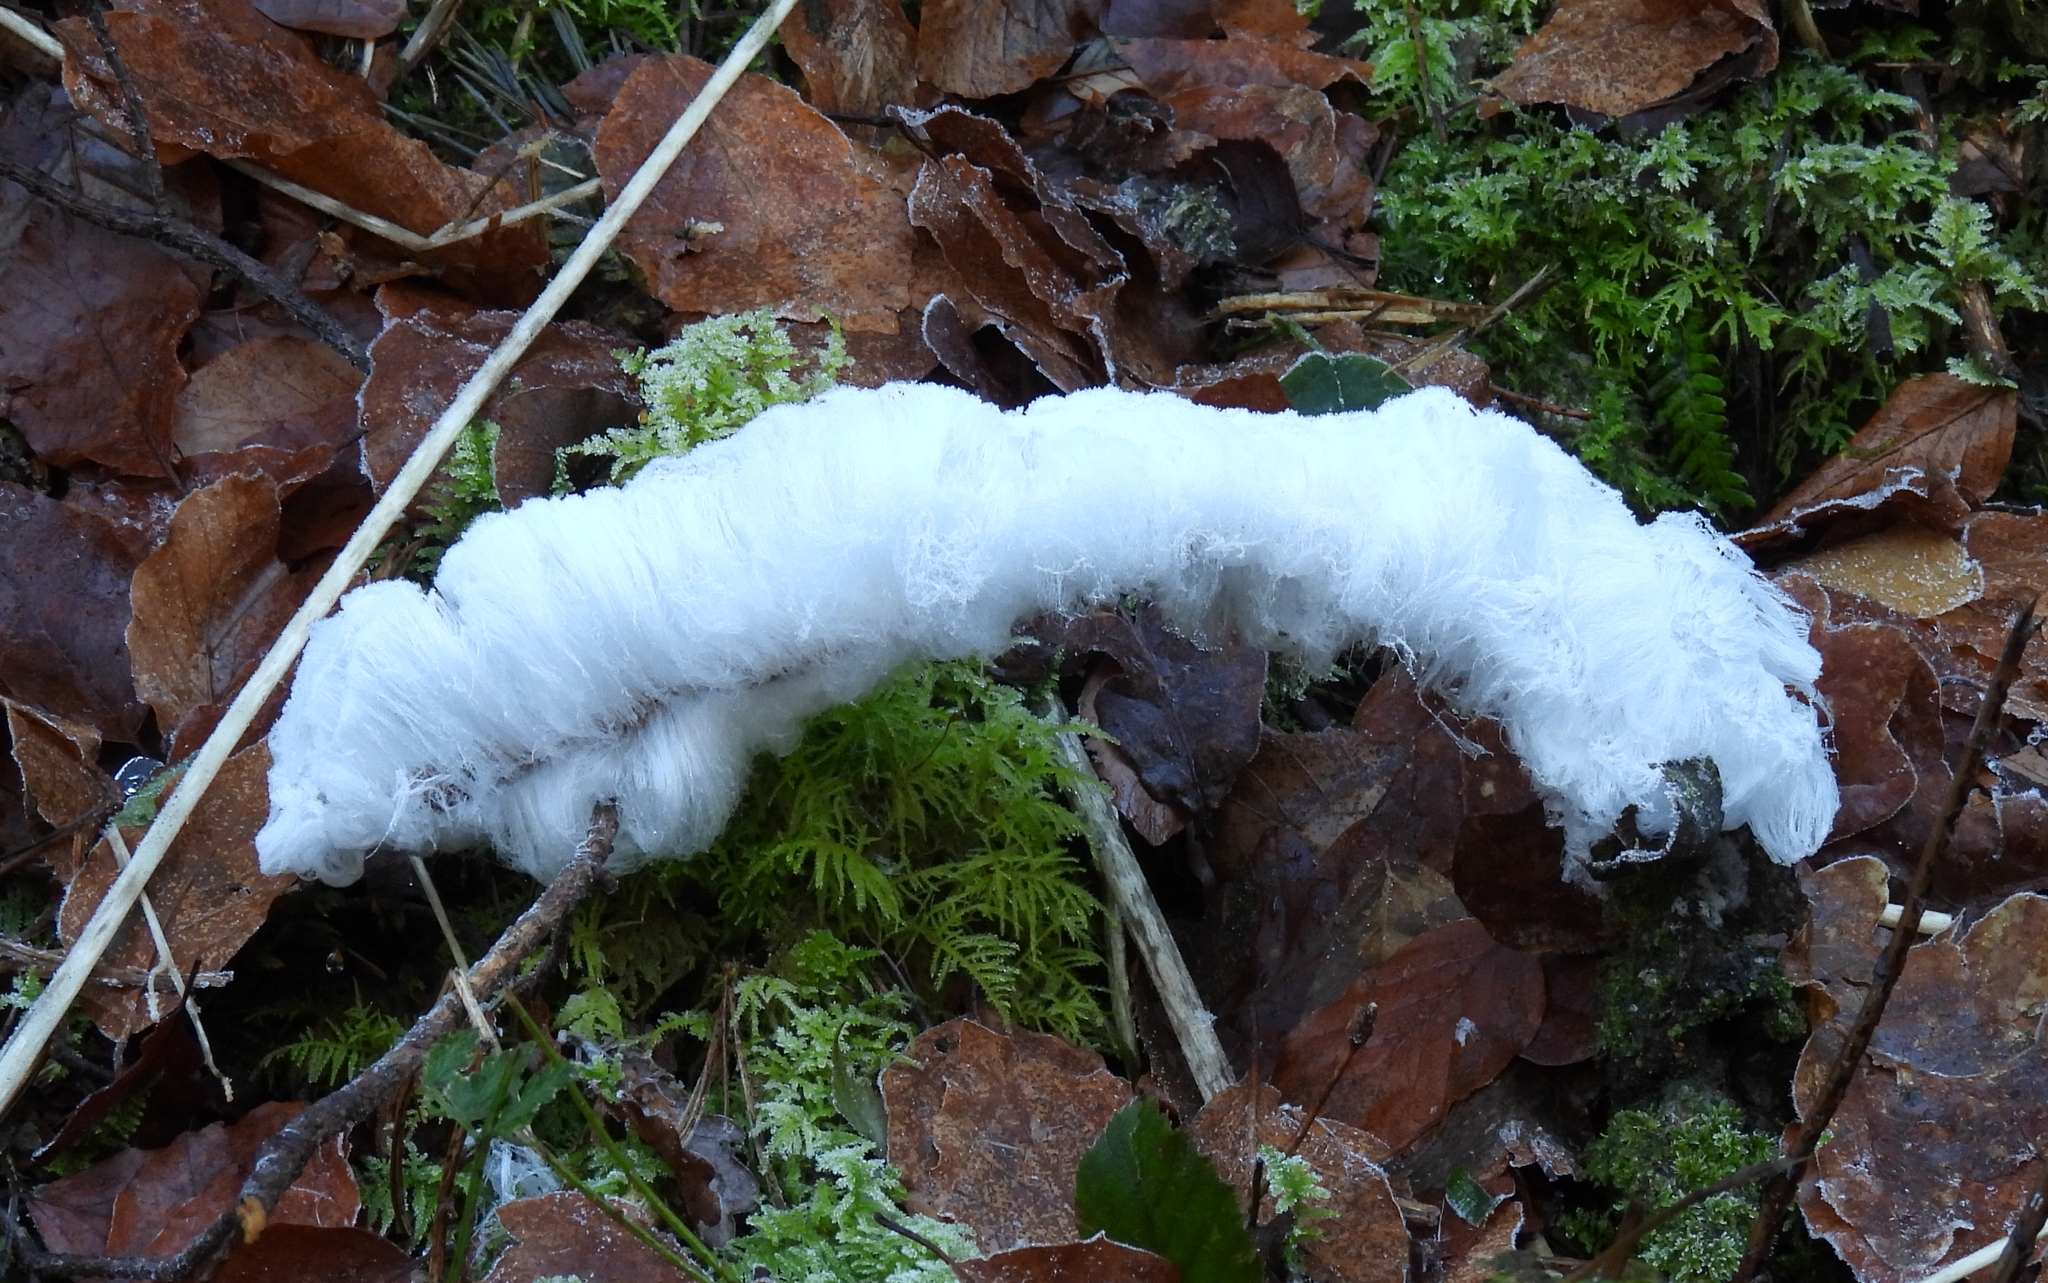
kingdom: Fungi
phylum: Basidiomycota
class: Agaricomycetes
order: Auriculariales
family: Auriculariaceae
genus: Exidiopsis
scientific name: Exidiopsis effusa
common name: Hair ice crust
